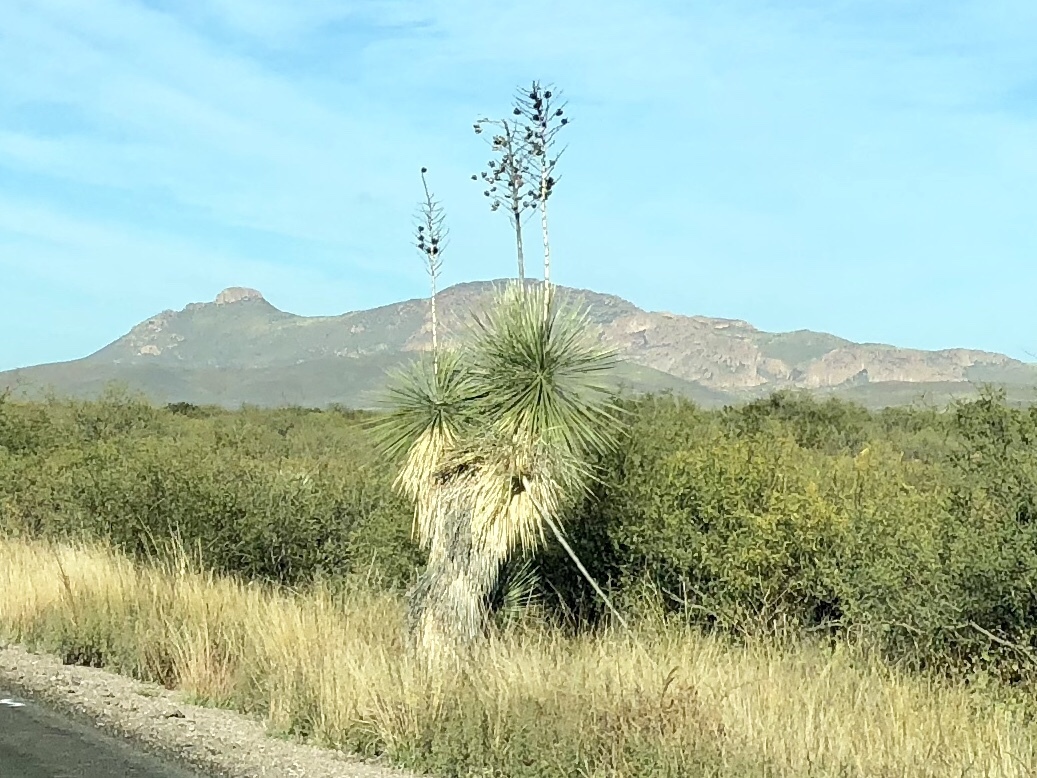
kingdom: Plantae
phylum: Tracheophyta
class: Liliopsida
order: Asparagales
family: Asparagaceae
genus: Yucca
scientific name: Yucca elata
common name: Palmella
